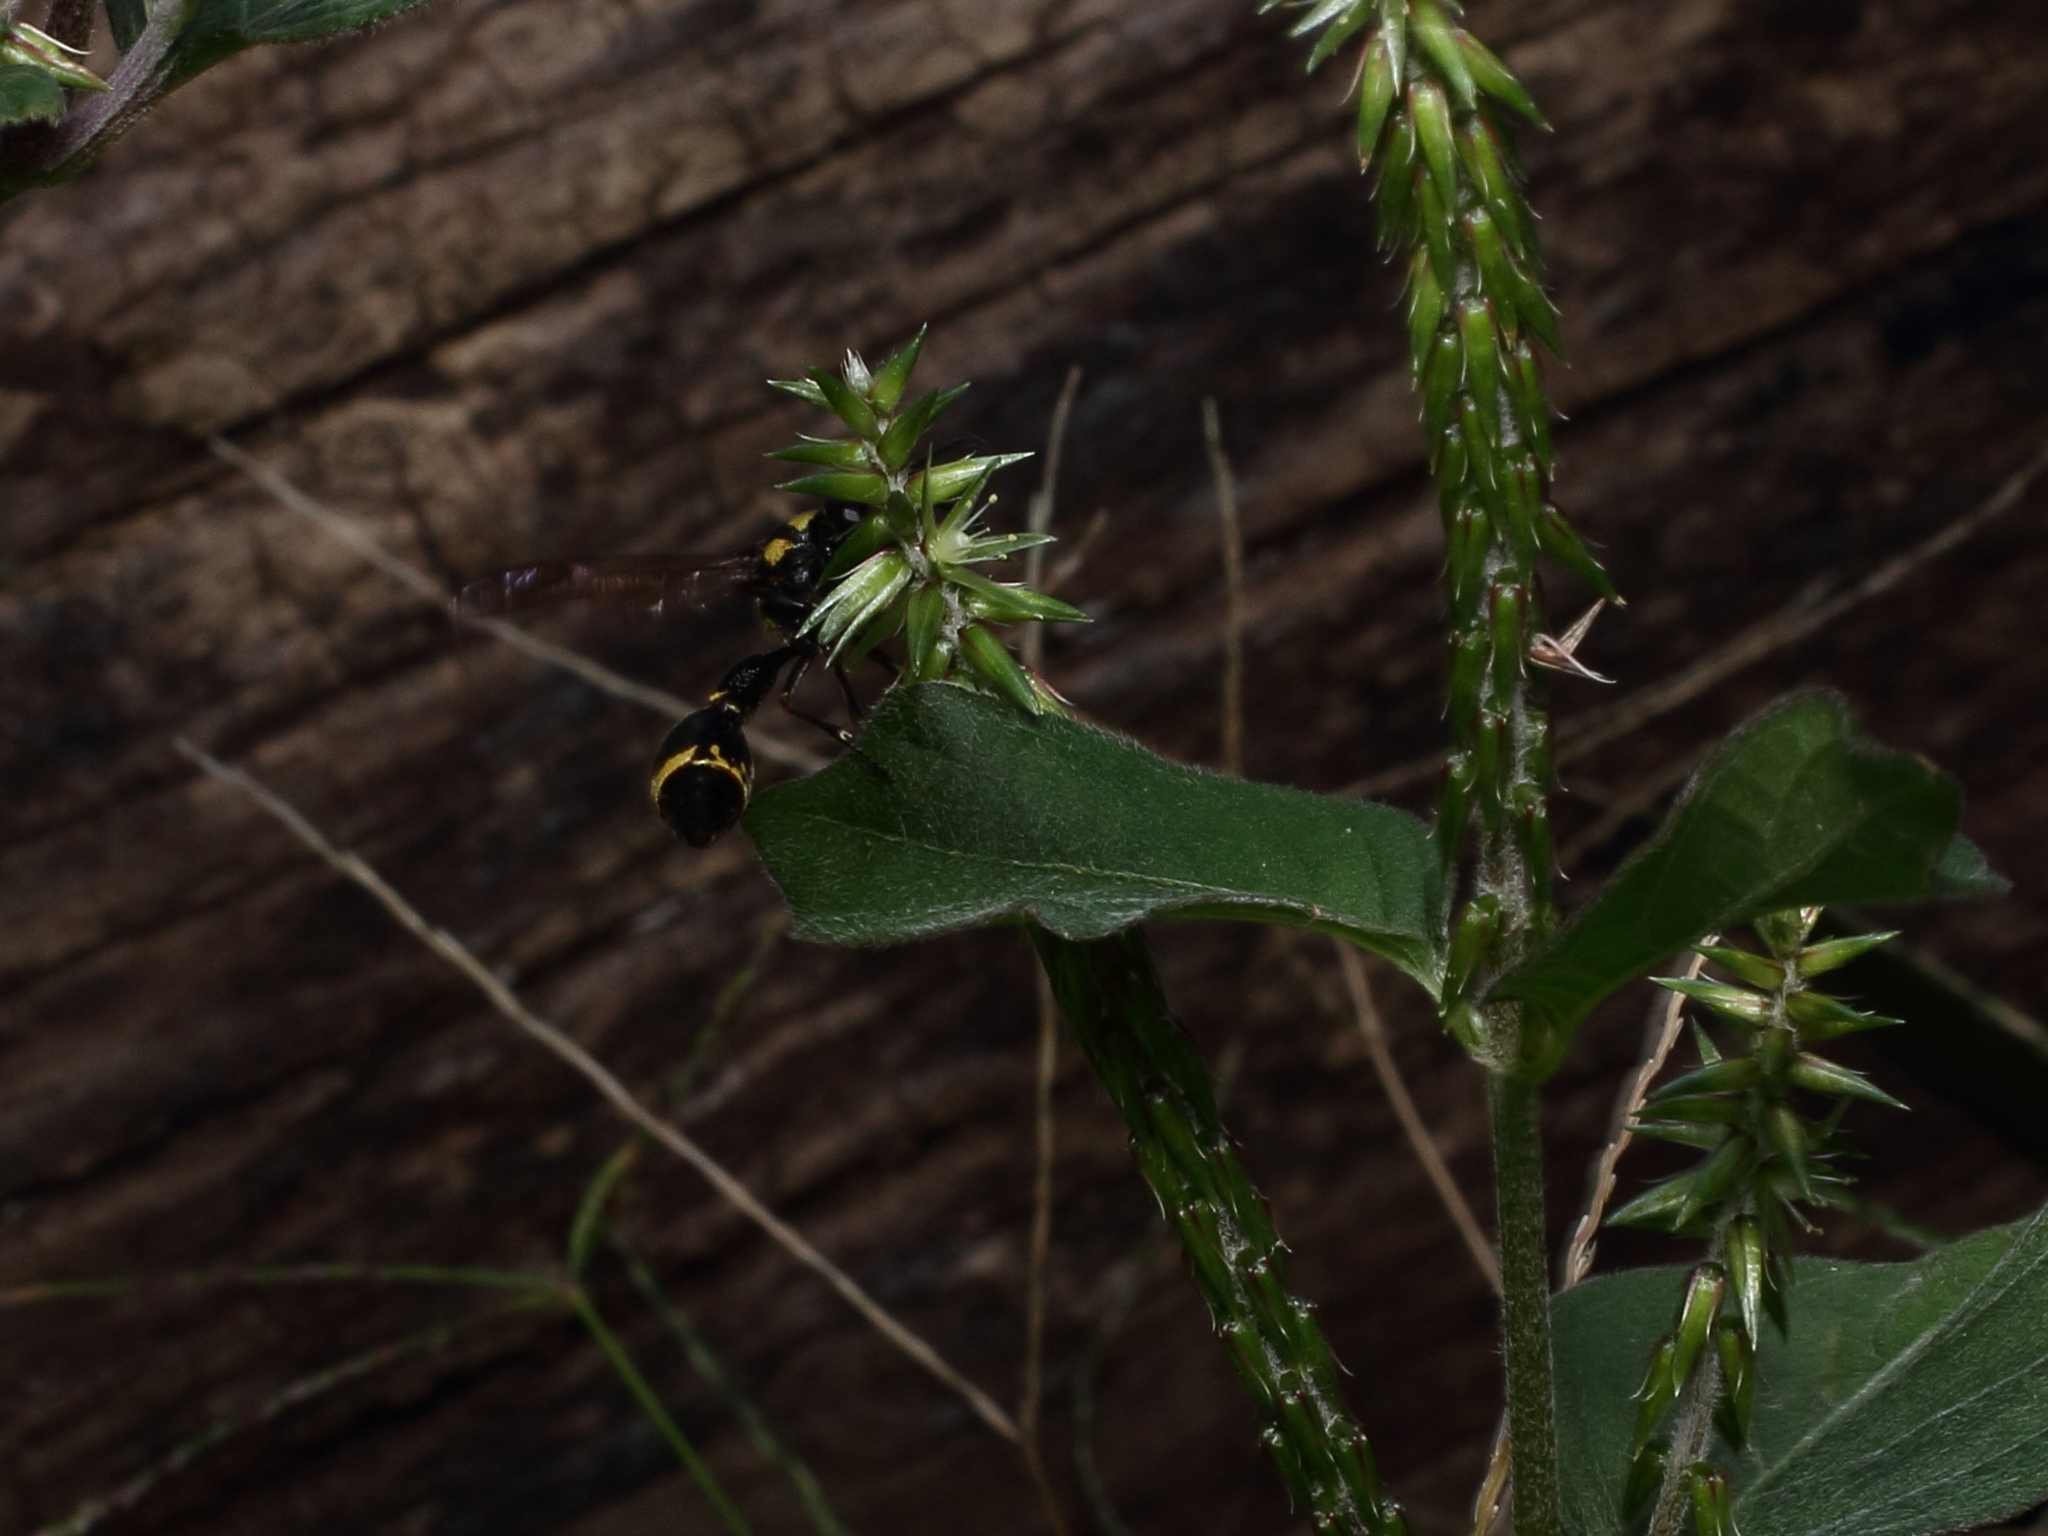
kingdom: Animalia
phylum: Arthropoda
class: Insecta
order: Hymenoptera
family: Vespidae
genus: Eumenes
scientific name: Eumenes micado
